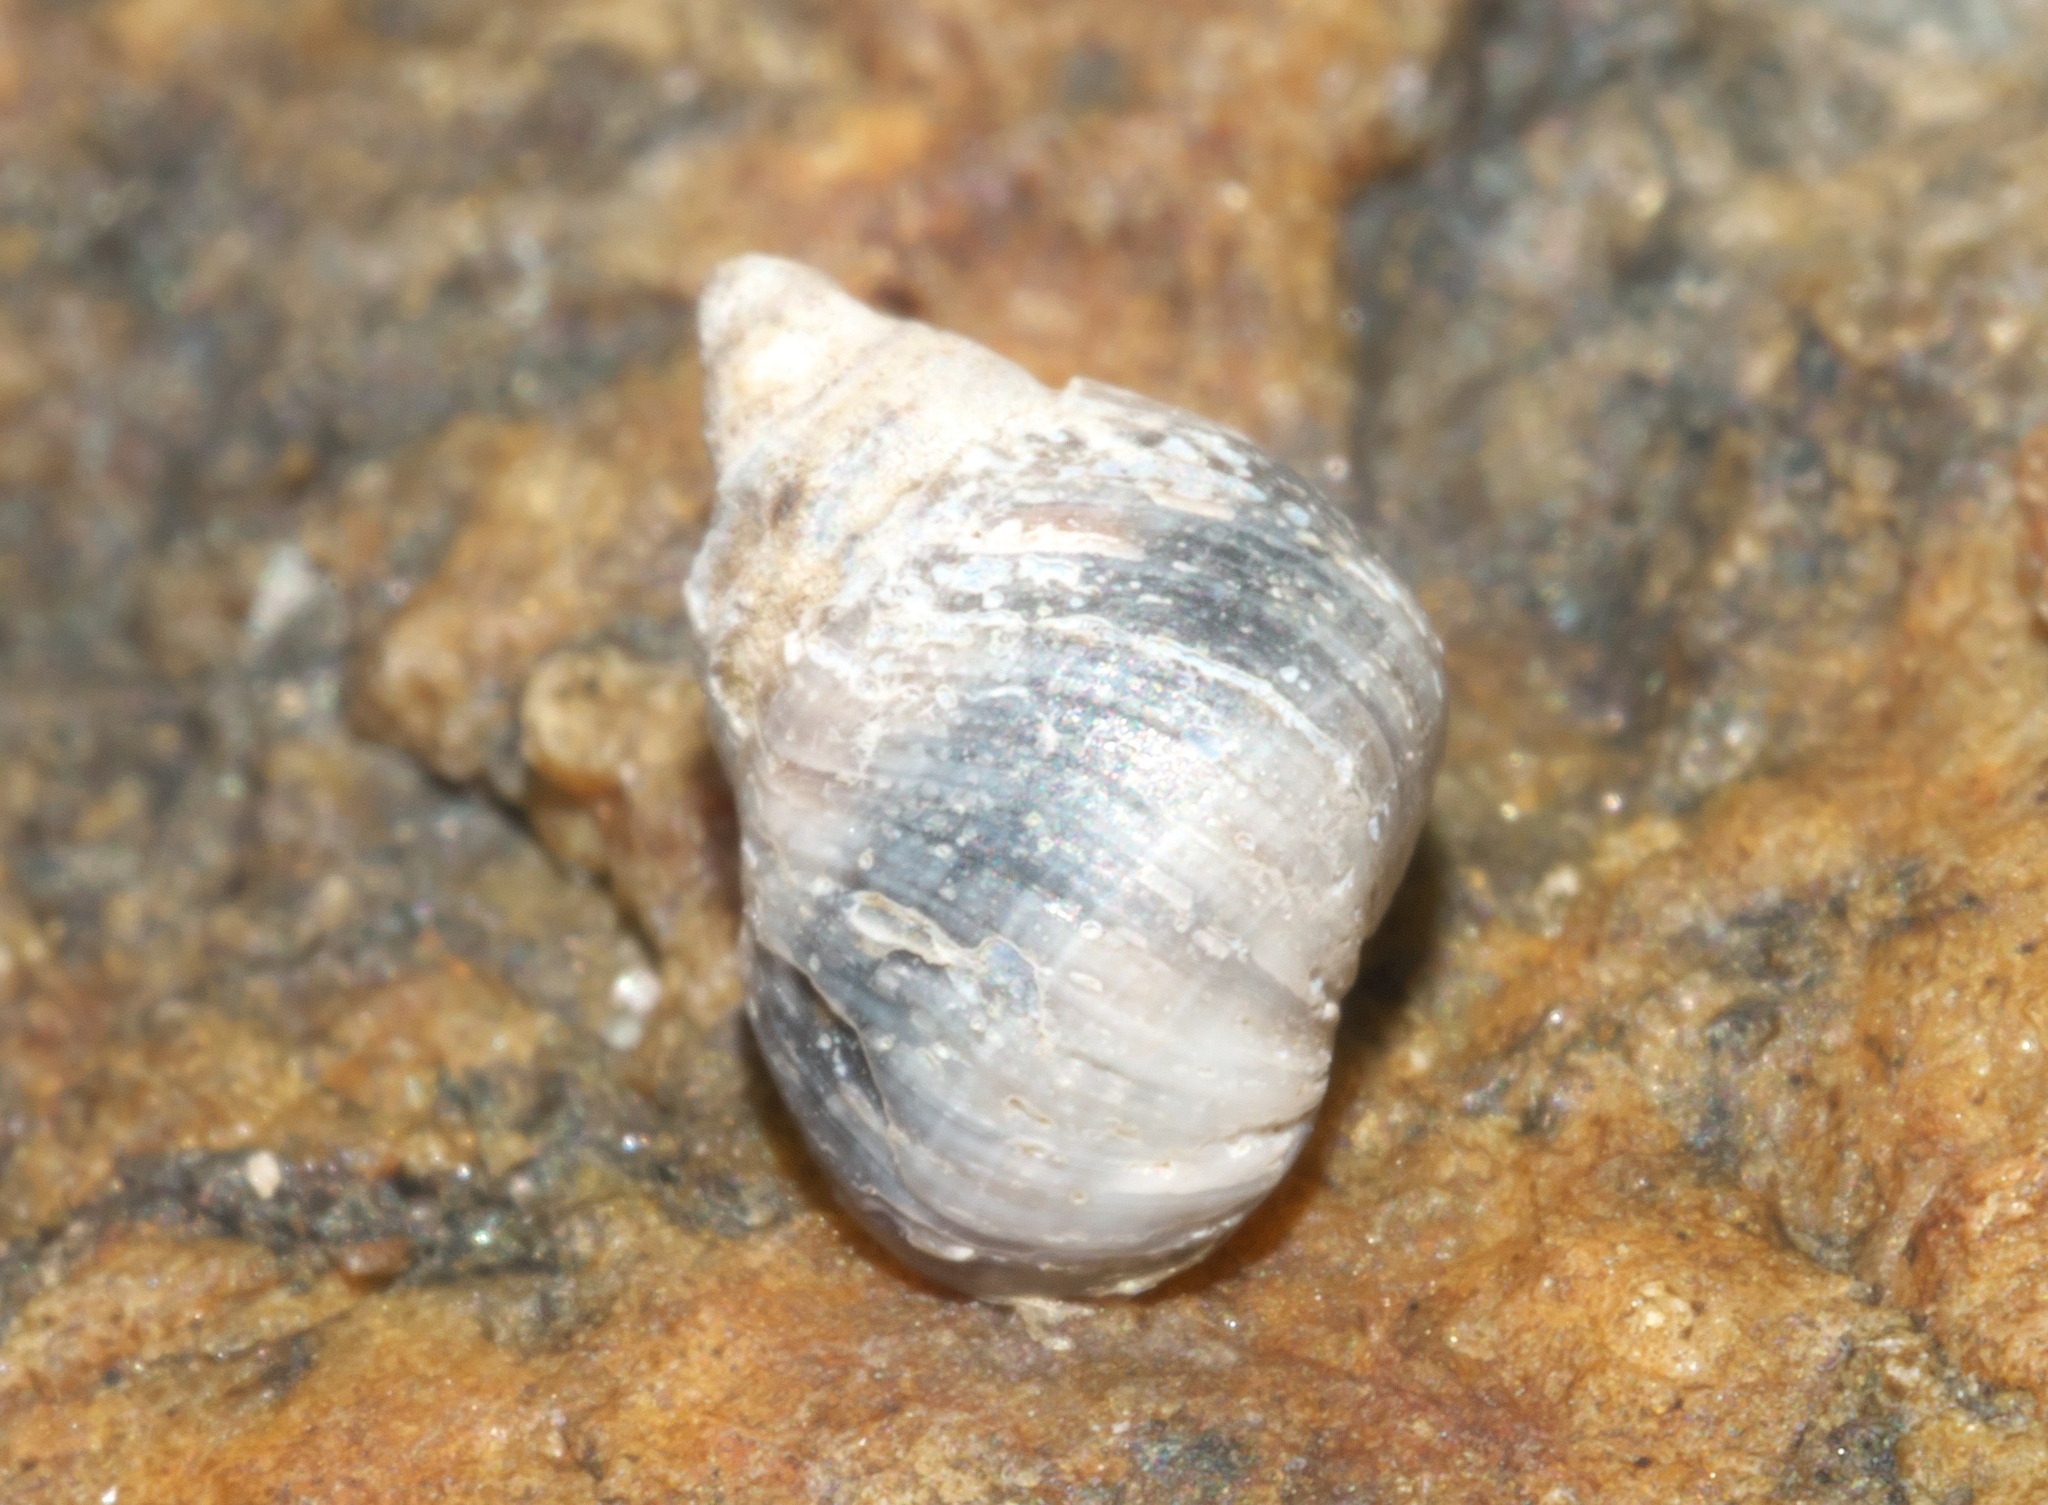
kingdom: Animalia
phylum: Mollusca
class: Gastropoda
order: Littorinimorpha
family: Littorinidae
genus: Austrolittorina
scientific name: Austrolittorina antipodum
